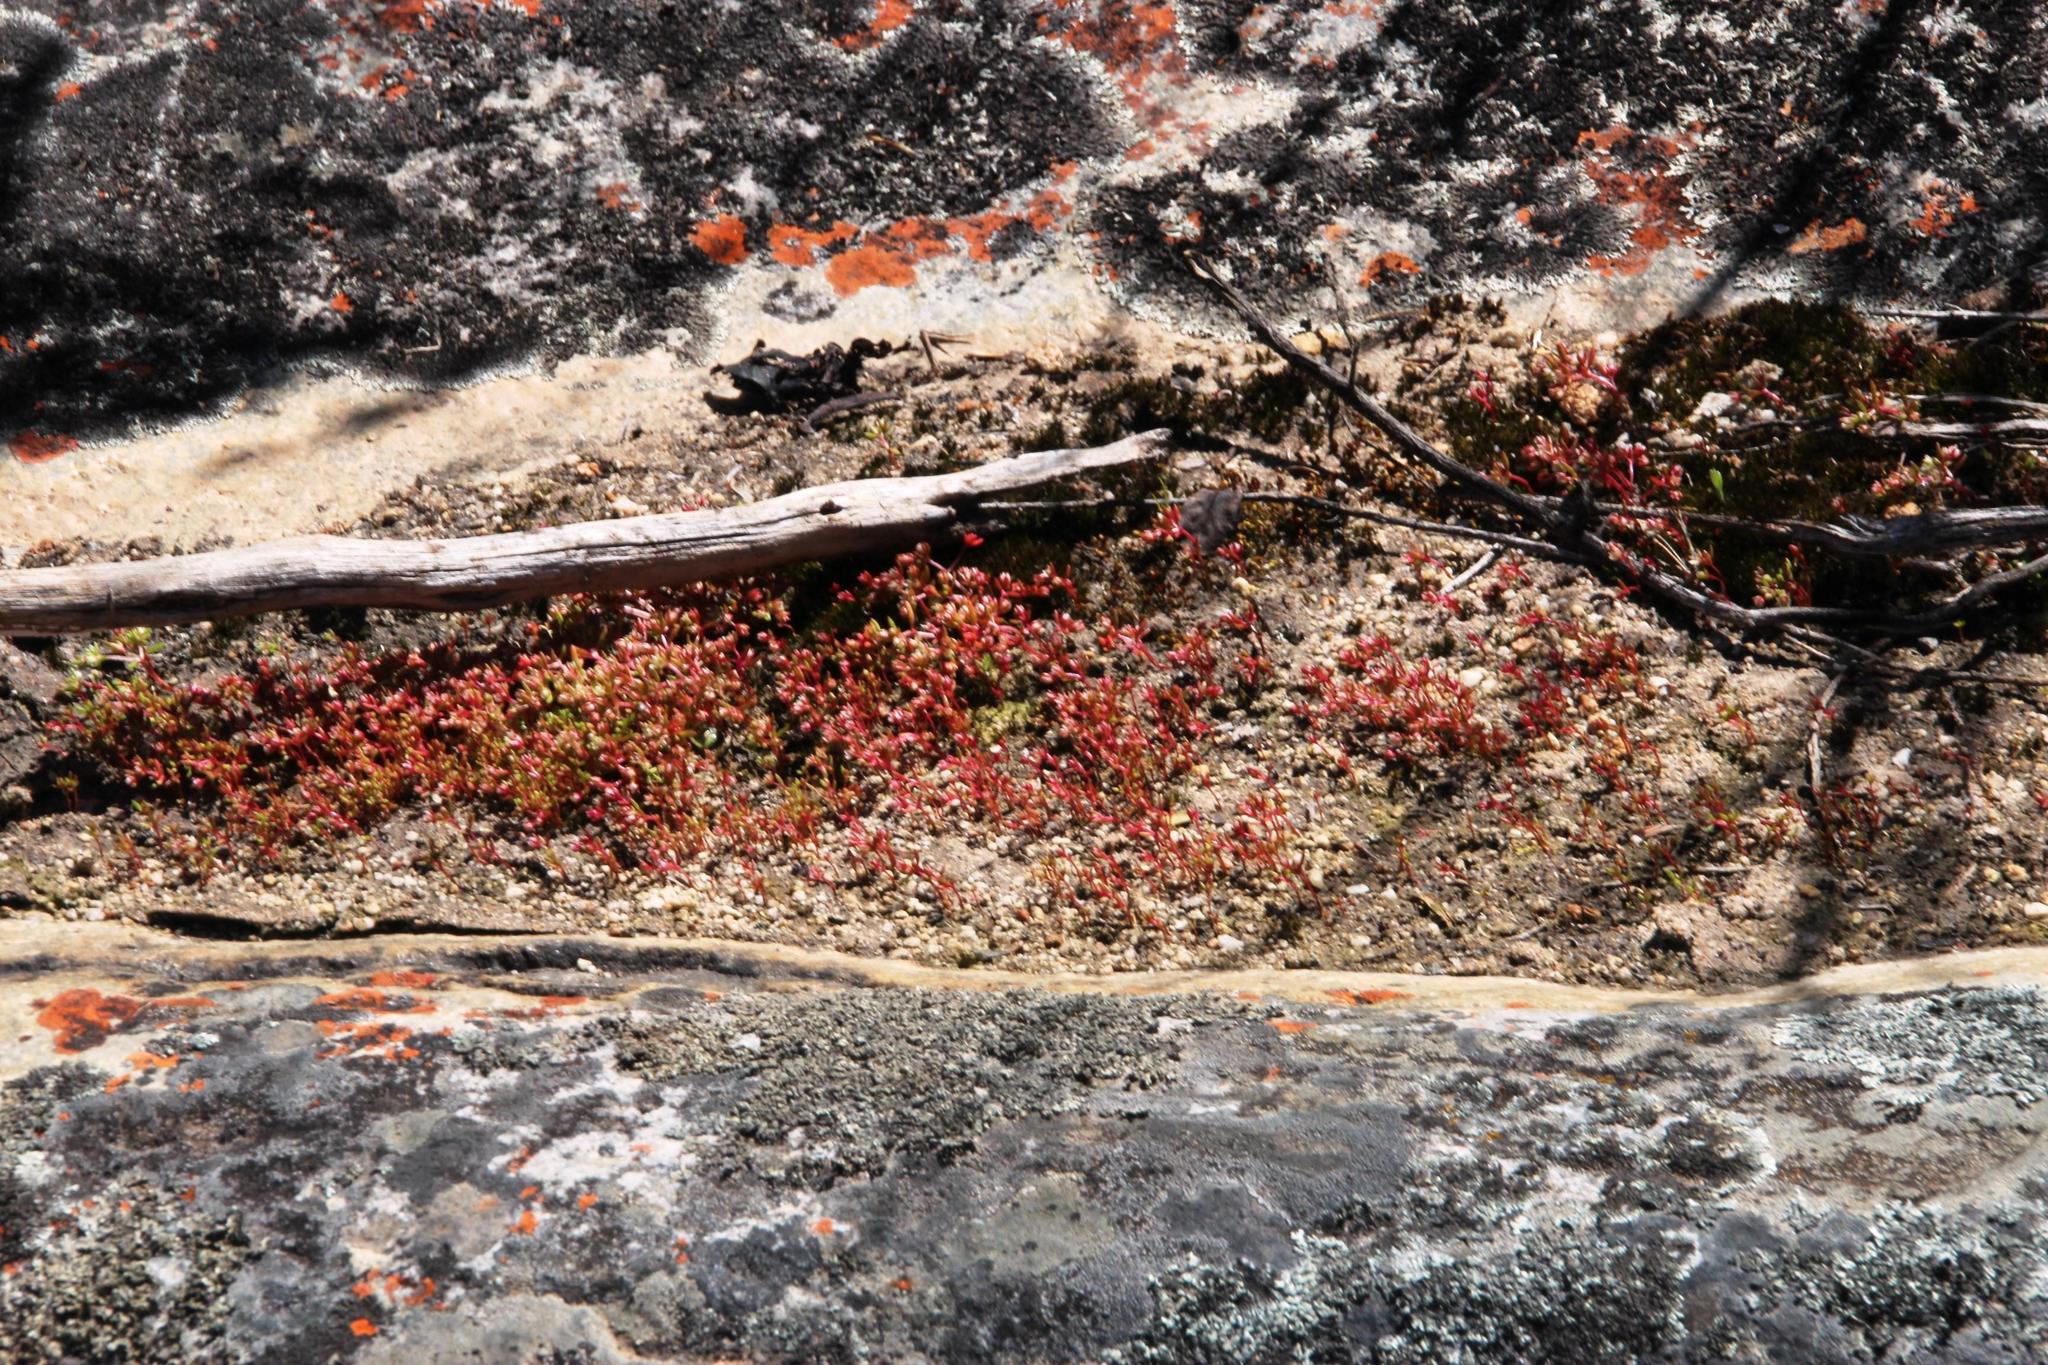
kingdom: Plantae
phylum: Tracheophyta
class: Magnoliopsida
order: Saxifragales
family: Crassulaceae
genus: Crassula
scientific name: Crassula vaillantii
